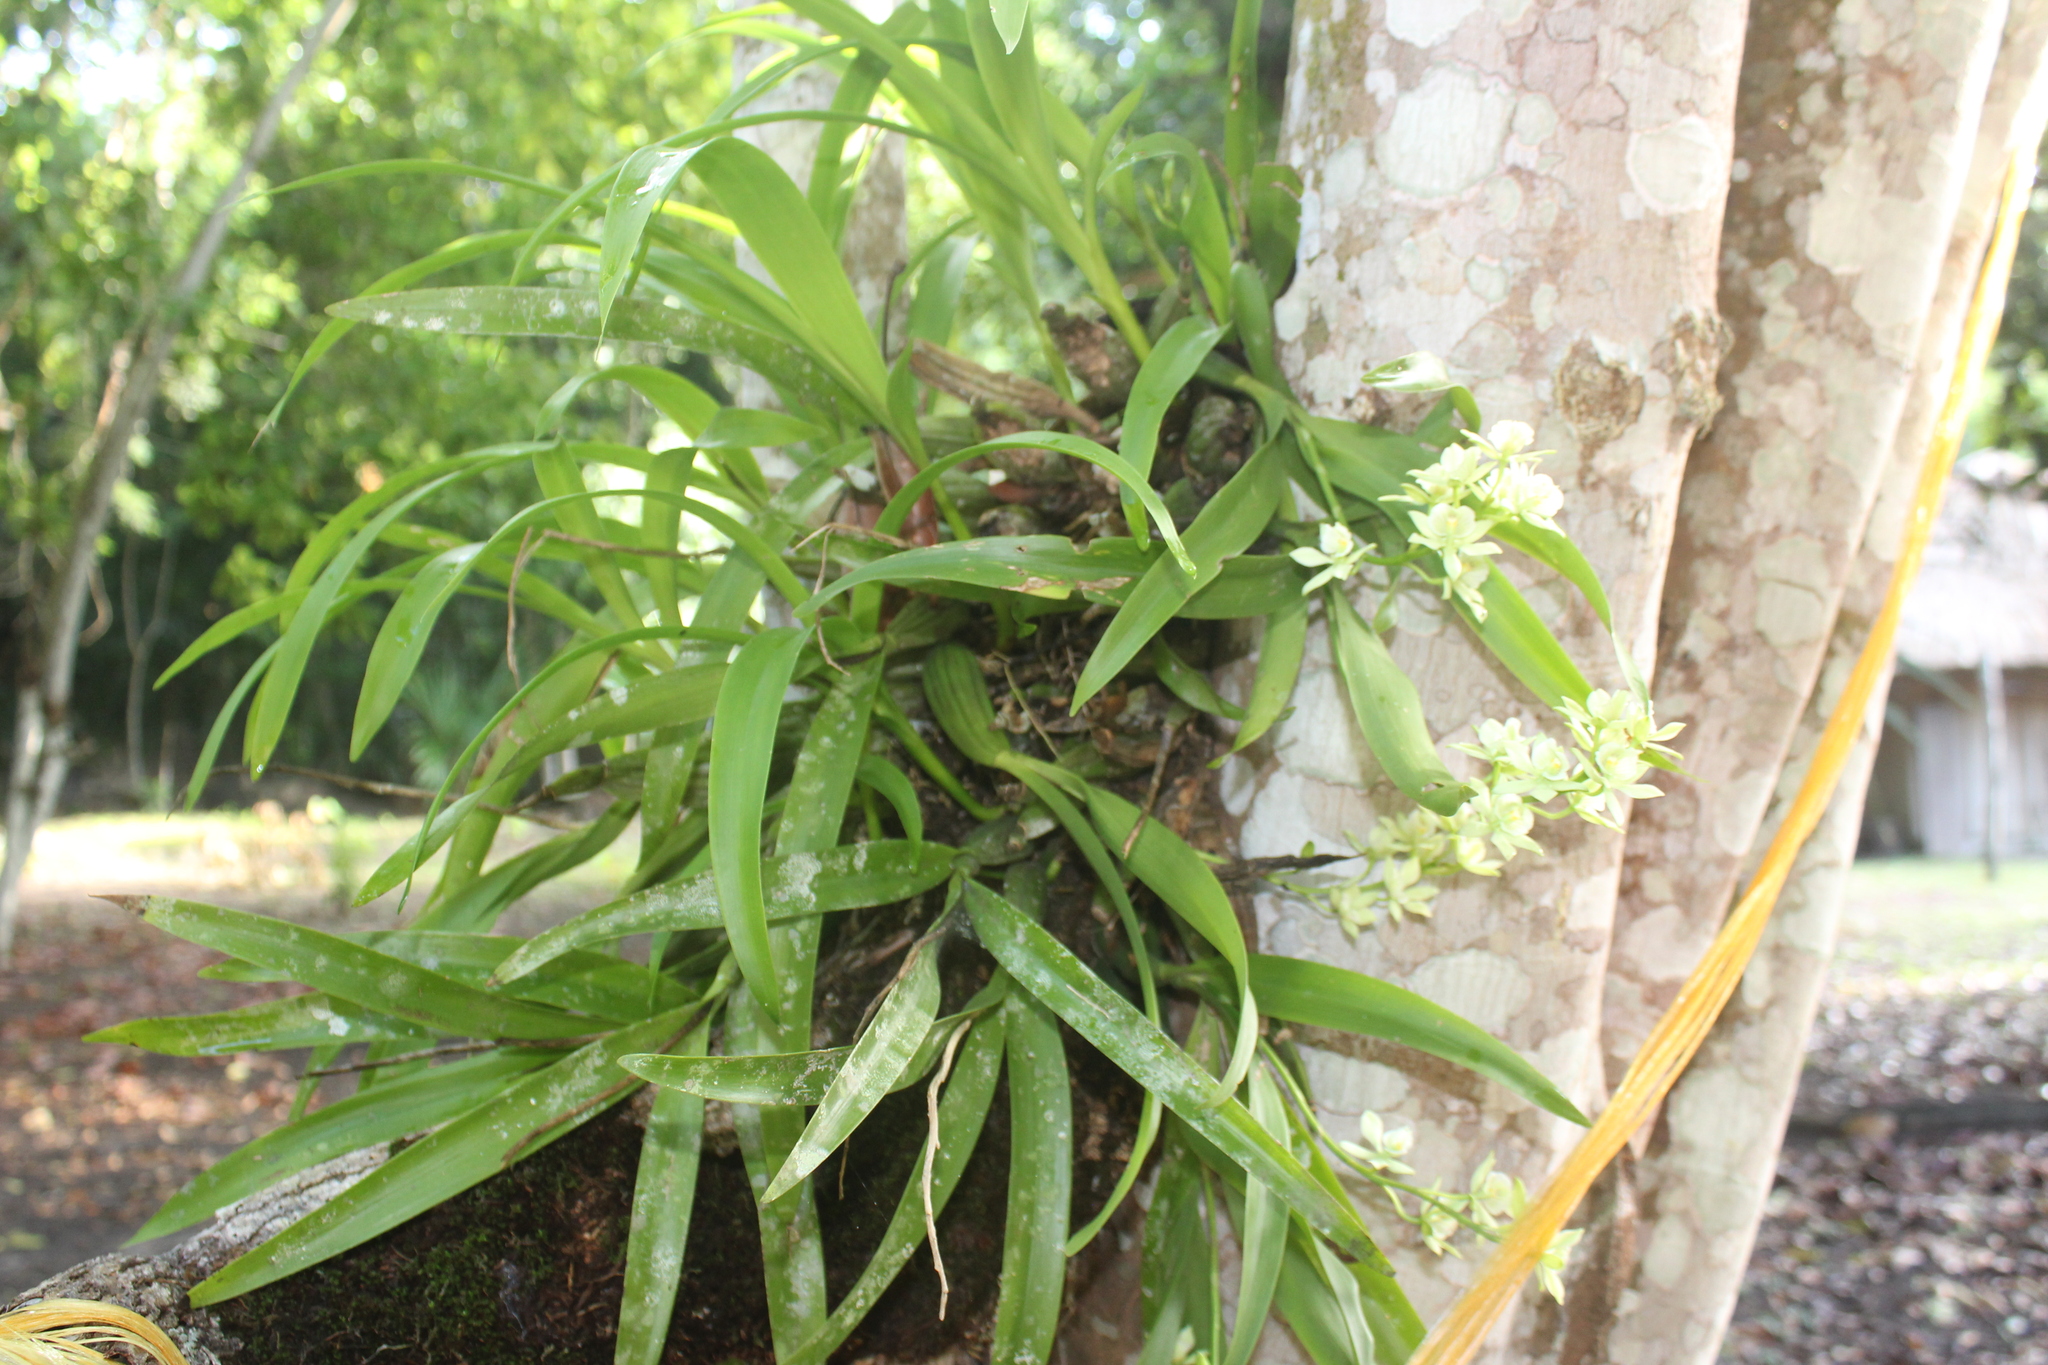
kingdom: Plantae
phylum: Tracheophyta
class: Liliopsida
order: Asparagales
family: Orchidaceae
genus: Prosthechea
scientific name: Prosthechea radiata
